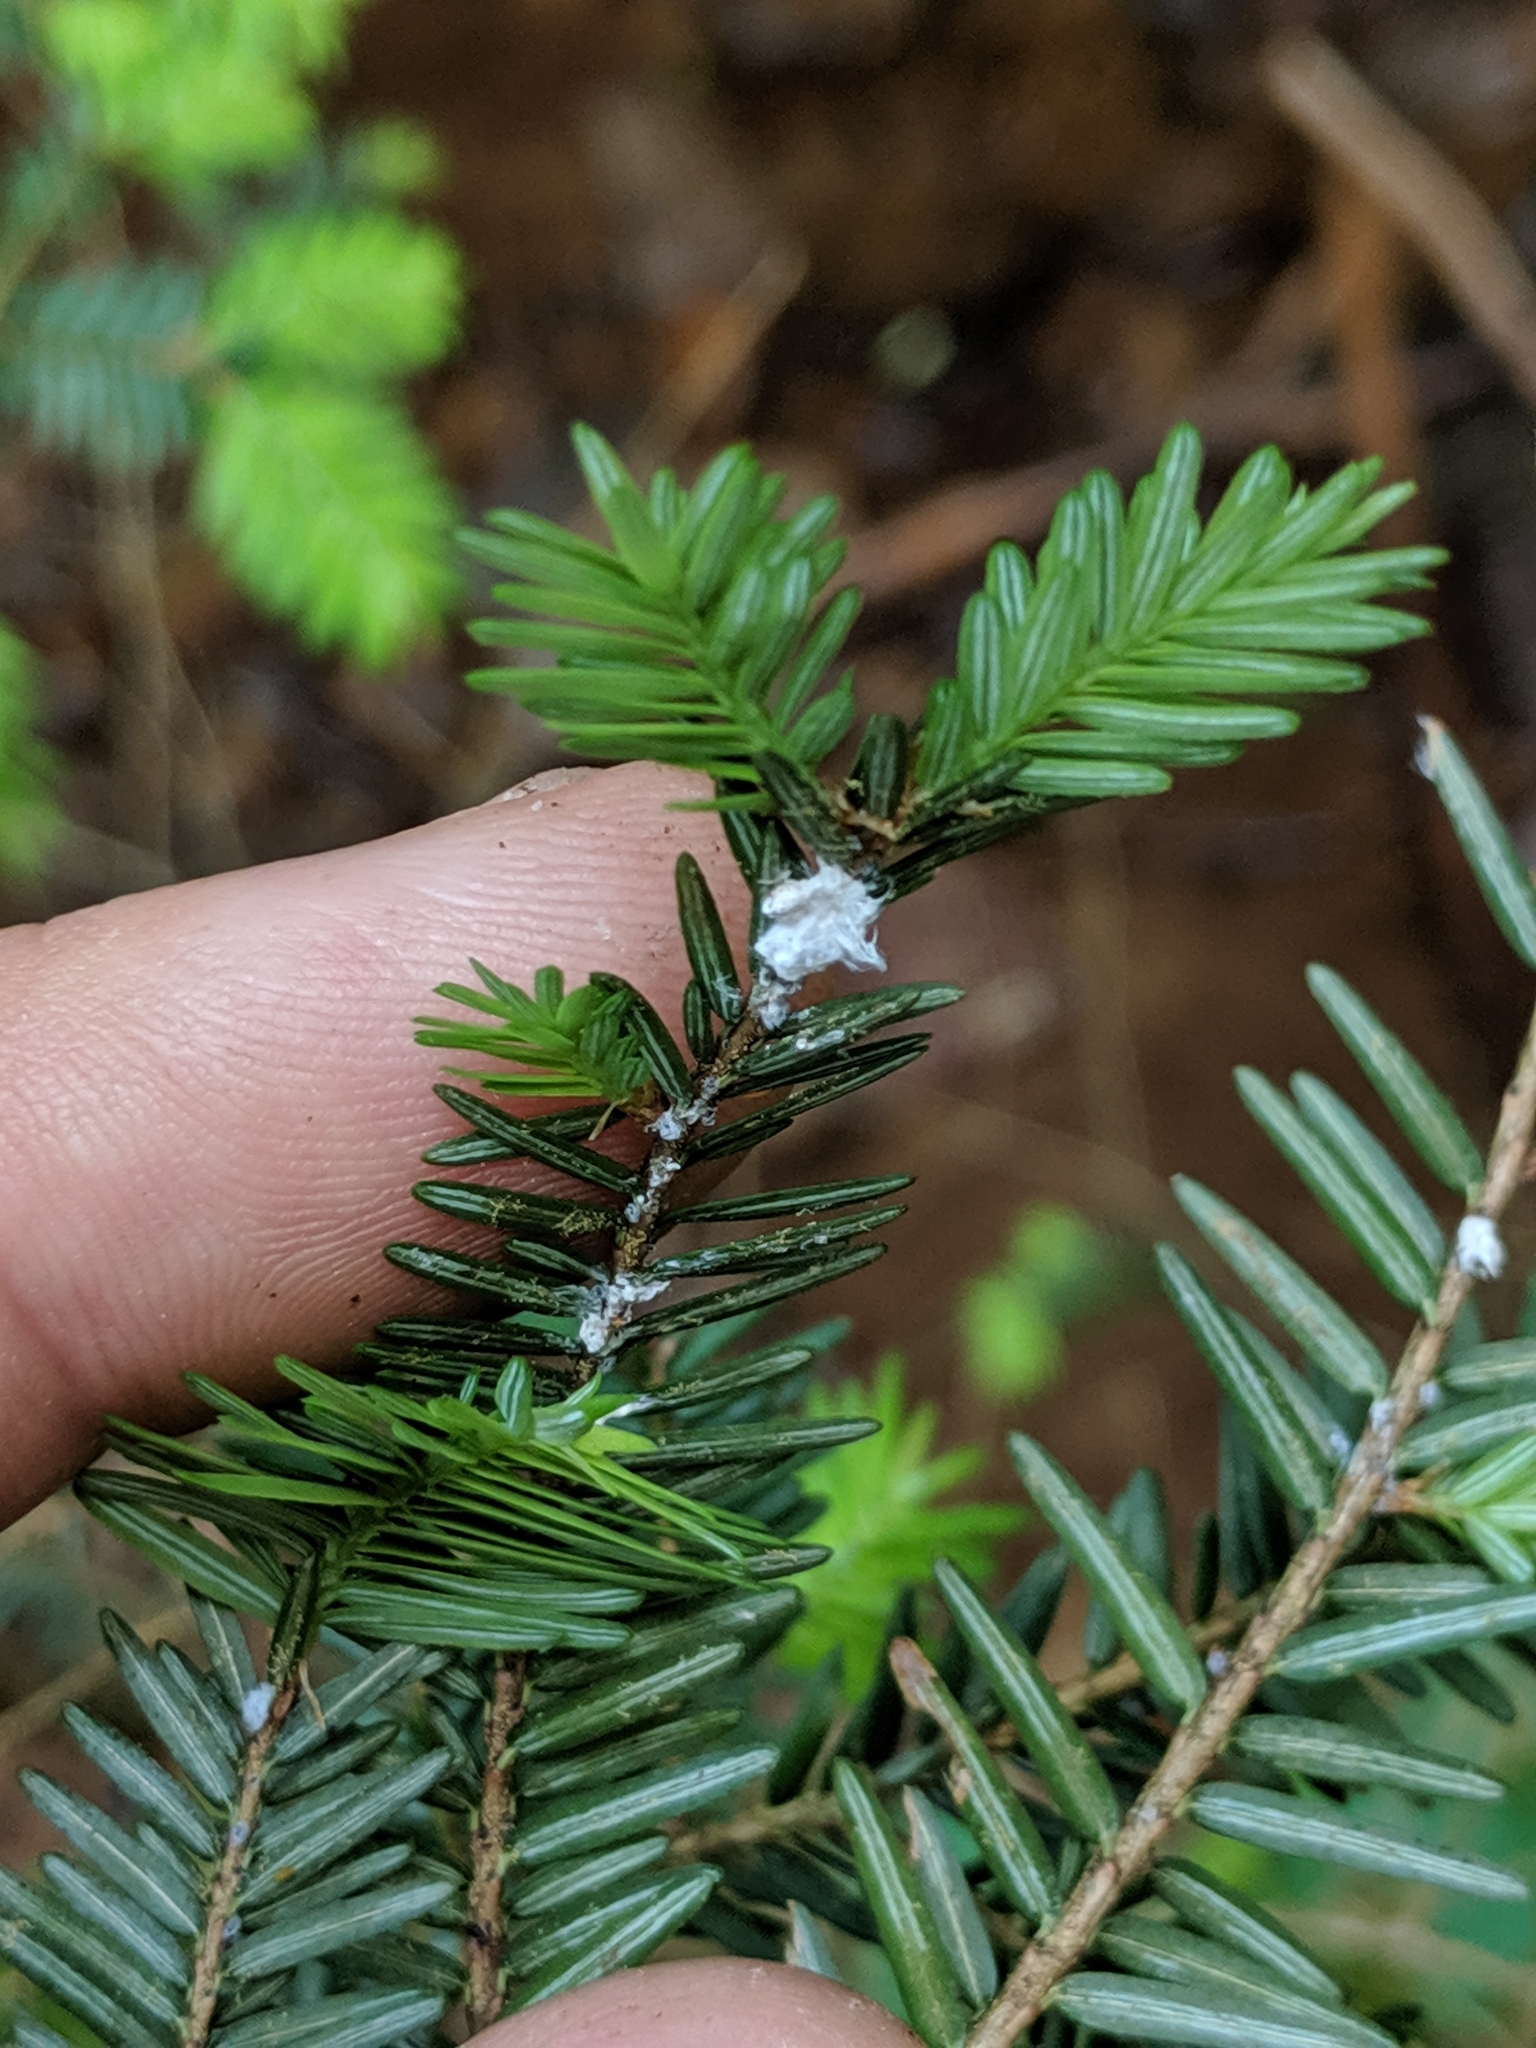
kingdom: Animalia
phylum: Arthropoda
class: Insecta
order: Hemiptera
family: Adelgidae
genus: Adelges
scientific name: Adelges tsugae
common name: Hemlock woolly adelgid
